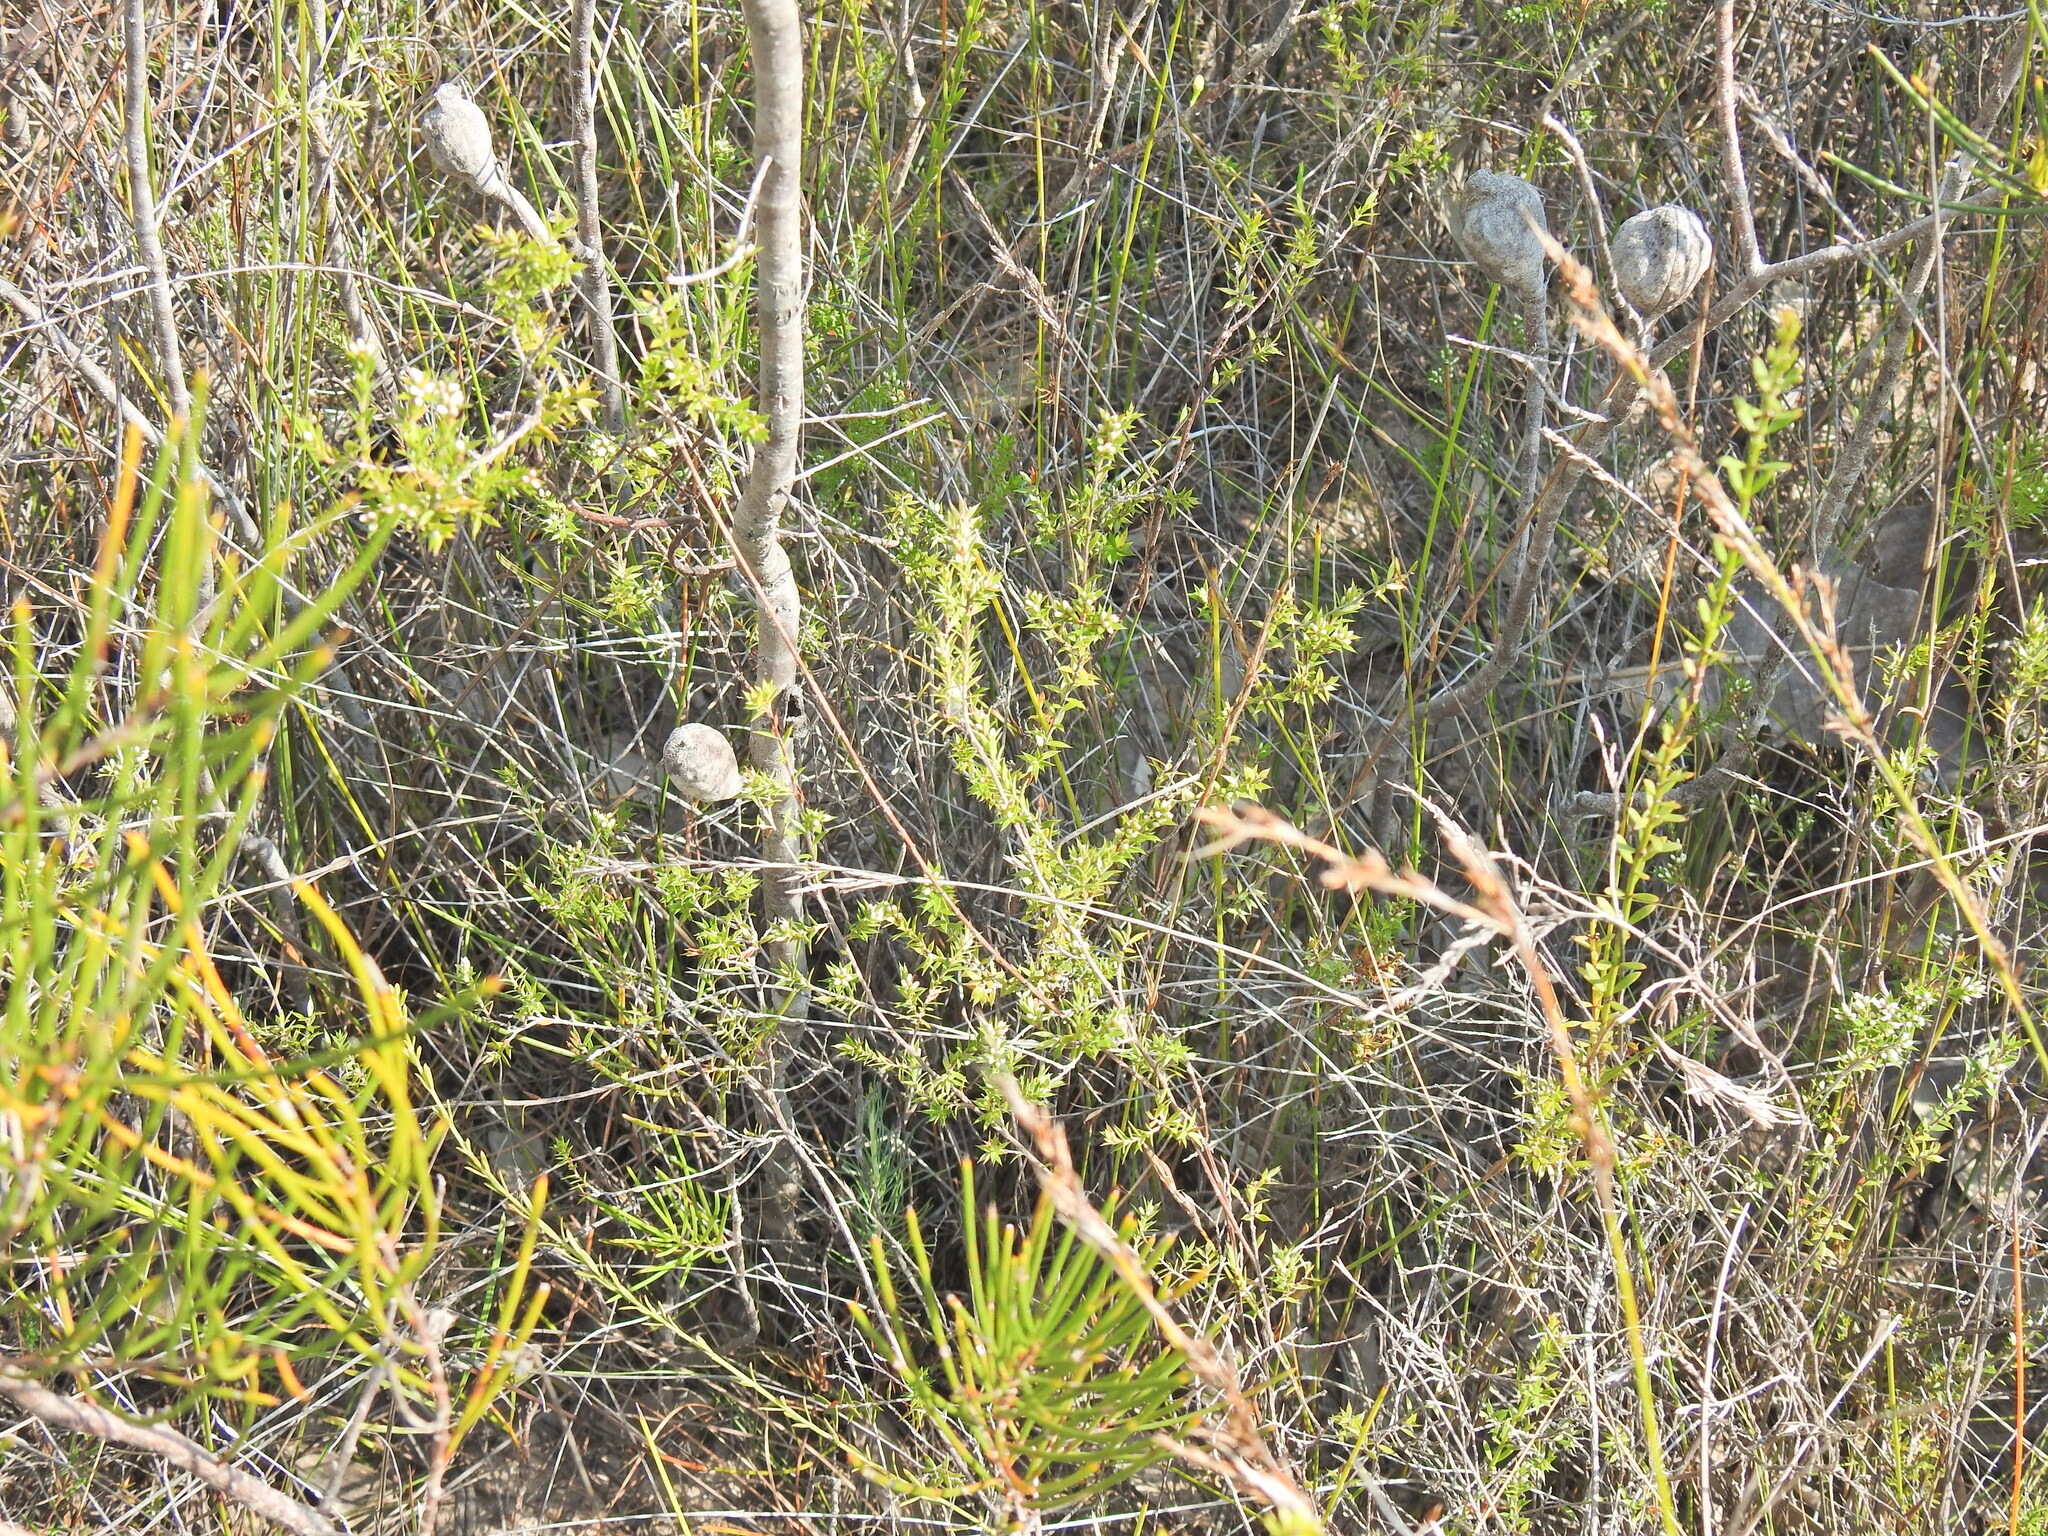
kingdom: Plantae
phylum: Tracheophyta
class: Magnoliopsida
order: Ericales
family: Ericaceae
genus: Styphelia
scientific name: Styphelia
